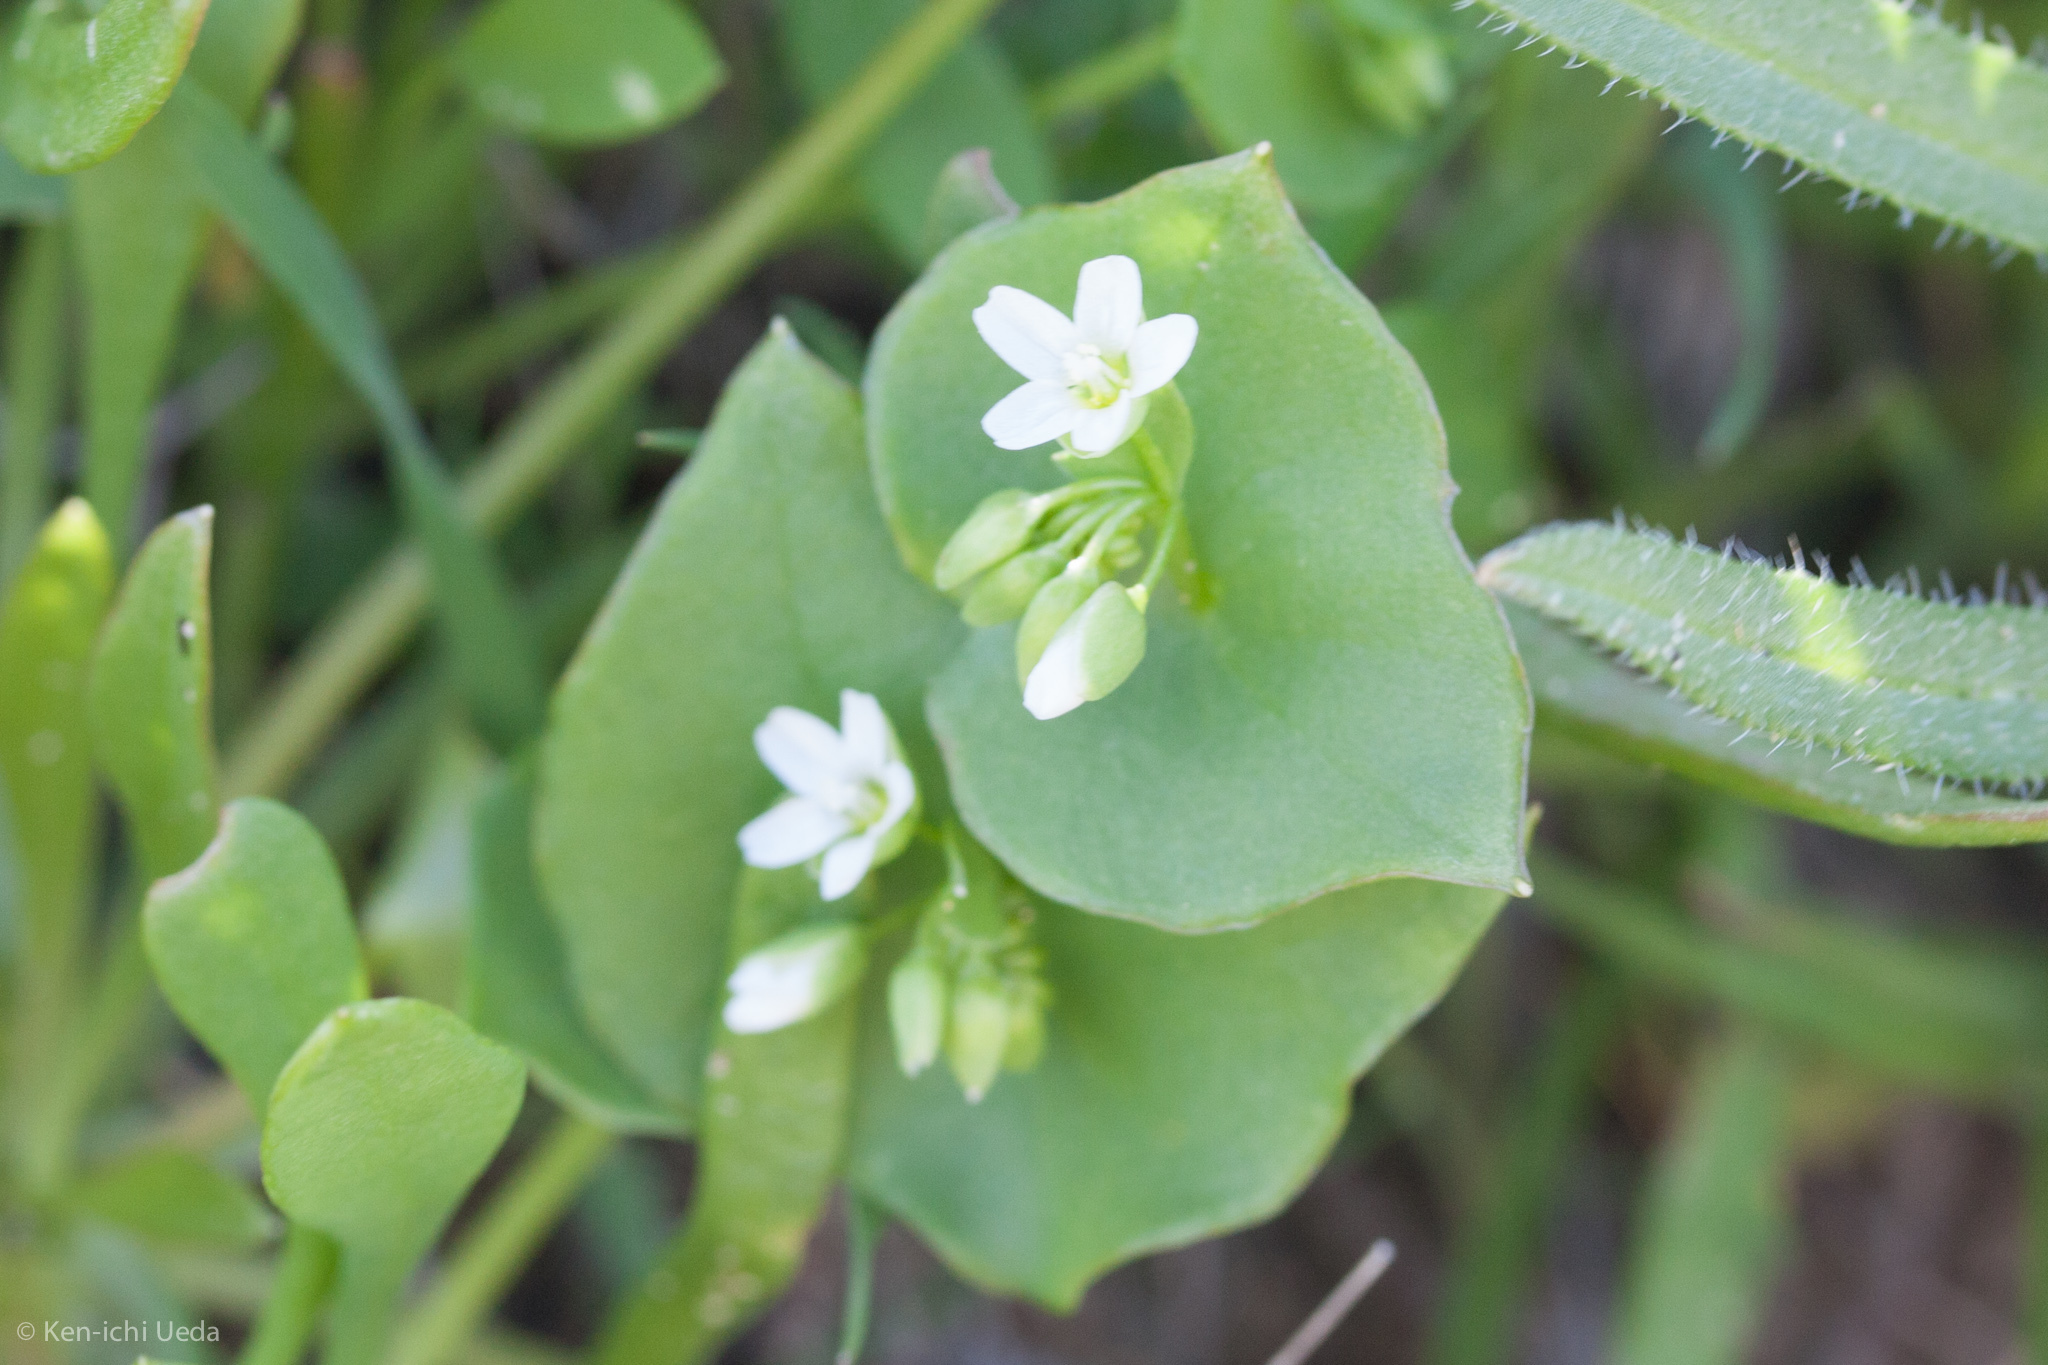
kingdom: Plantae
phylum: Tracheophyta
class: Magnoliopsida
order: Caryophyllales
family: Montiaceae
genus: Claytonia
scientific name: Claytonia
